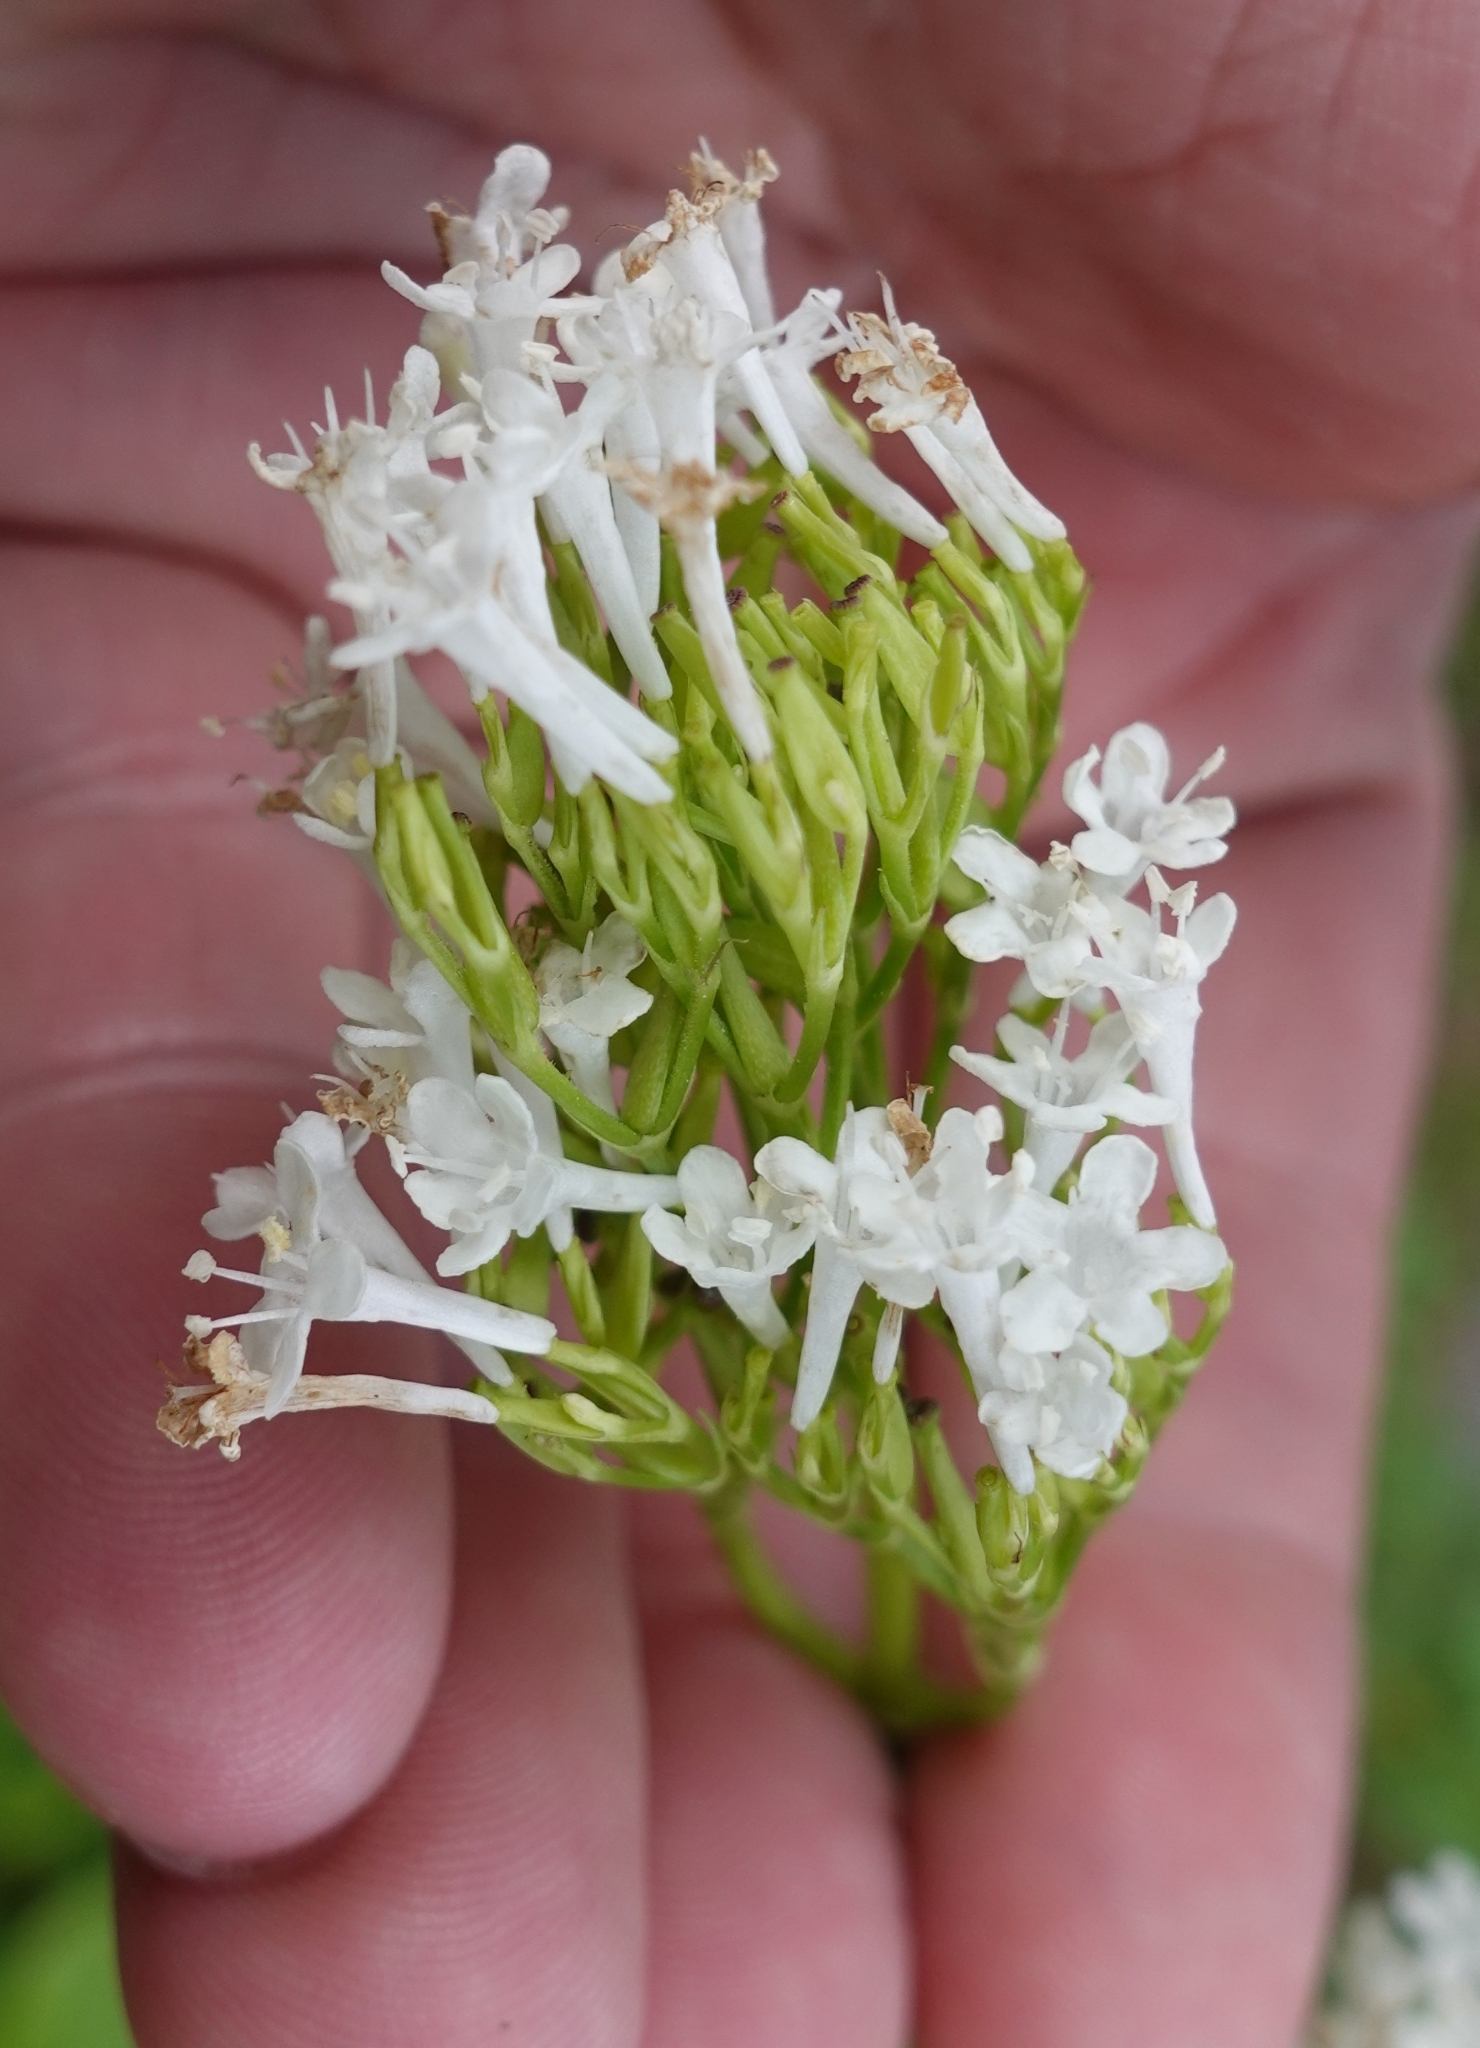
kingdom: Plantae
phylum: Tracheophyta
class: Magnoliopsida
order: Dipsacales
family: Caprifoliaceae
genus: Valeriana
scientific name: Valeriana alliariifolia
